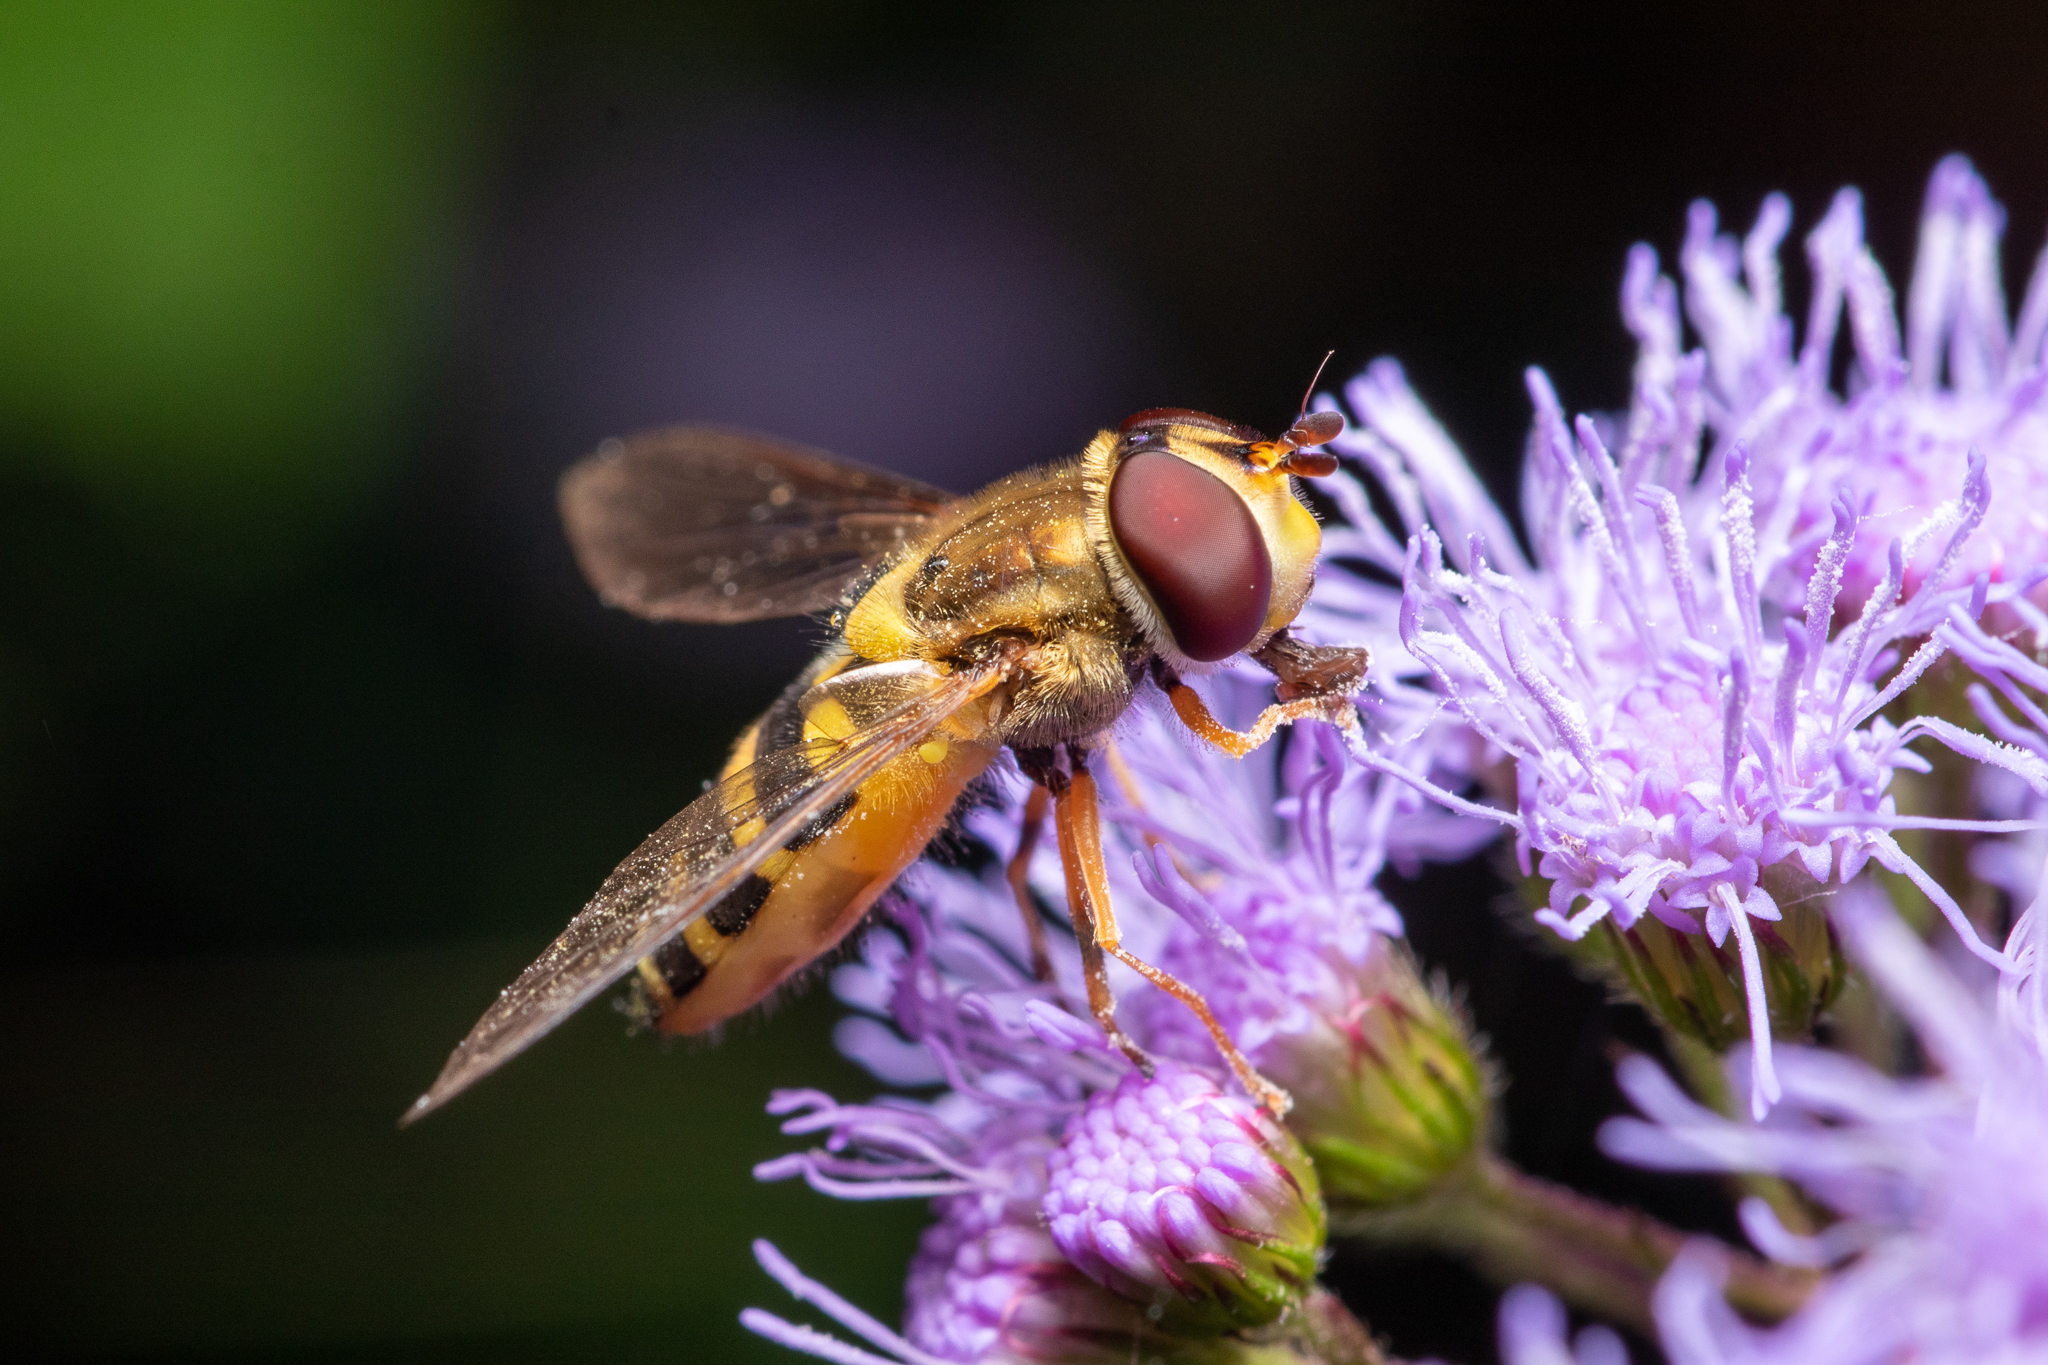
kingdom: Animalia
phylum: Arthropoda
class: Insecta
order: Diptera
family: Syrphidae
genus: Syrphus
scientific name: Syrphus rectus
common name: Yellow-legged flower fly
